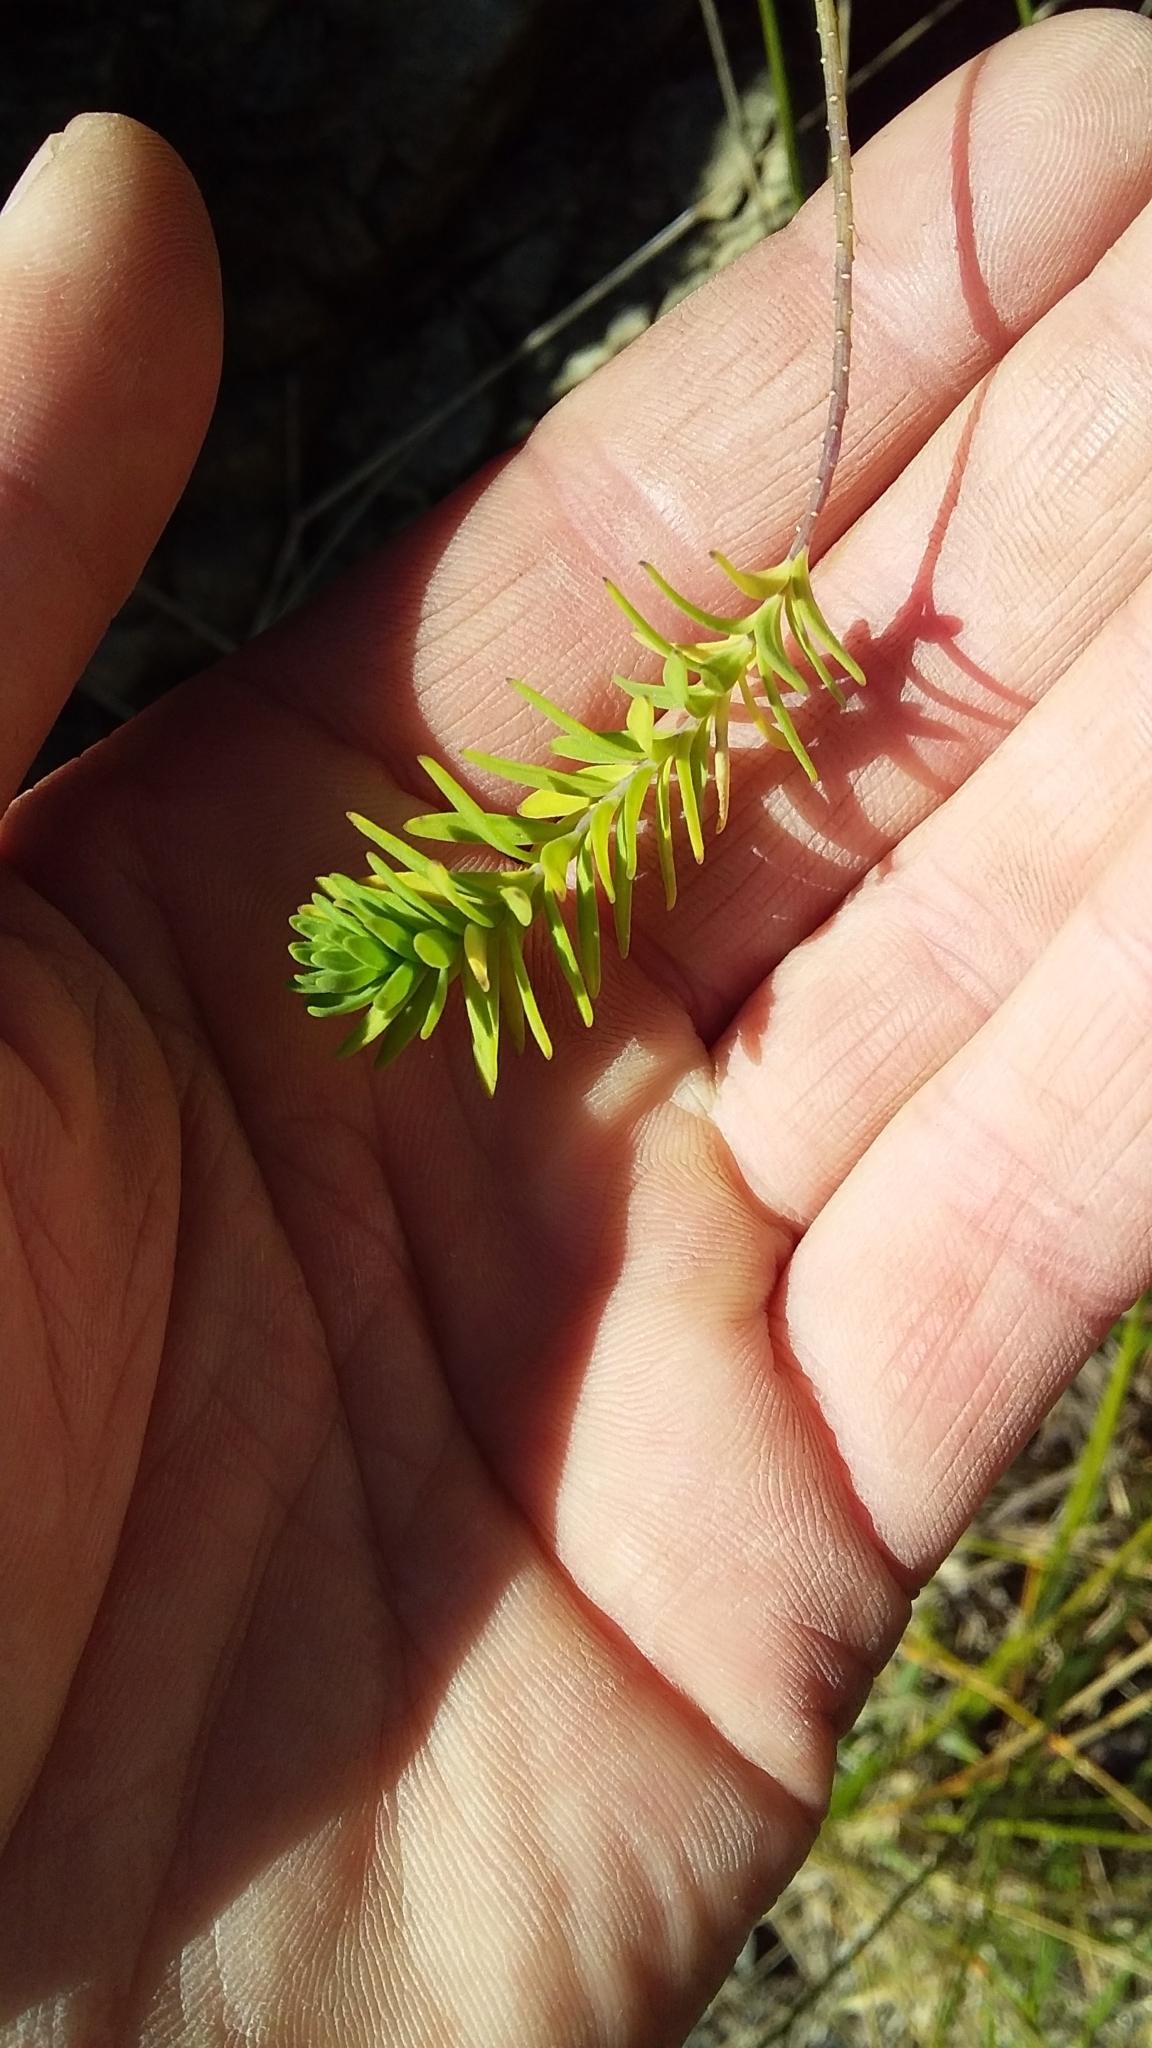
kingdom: Plantae
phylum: Tracheophyta
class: Magnoliopsida
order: Malpighiales
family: Linaceae
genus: Linum
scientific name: Linum monogynum
